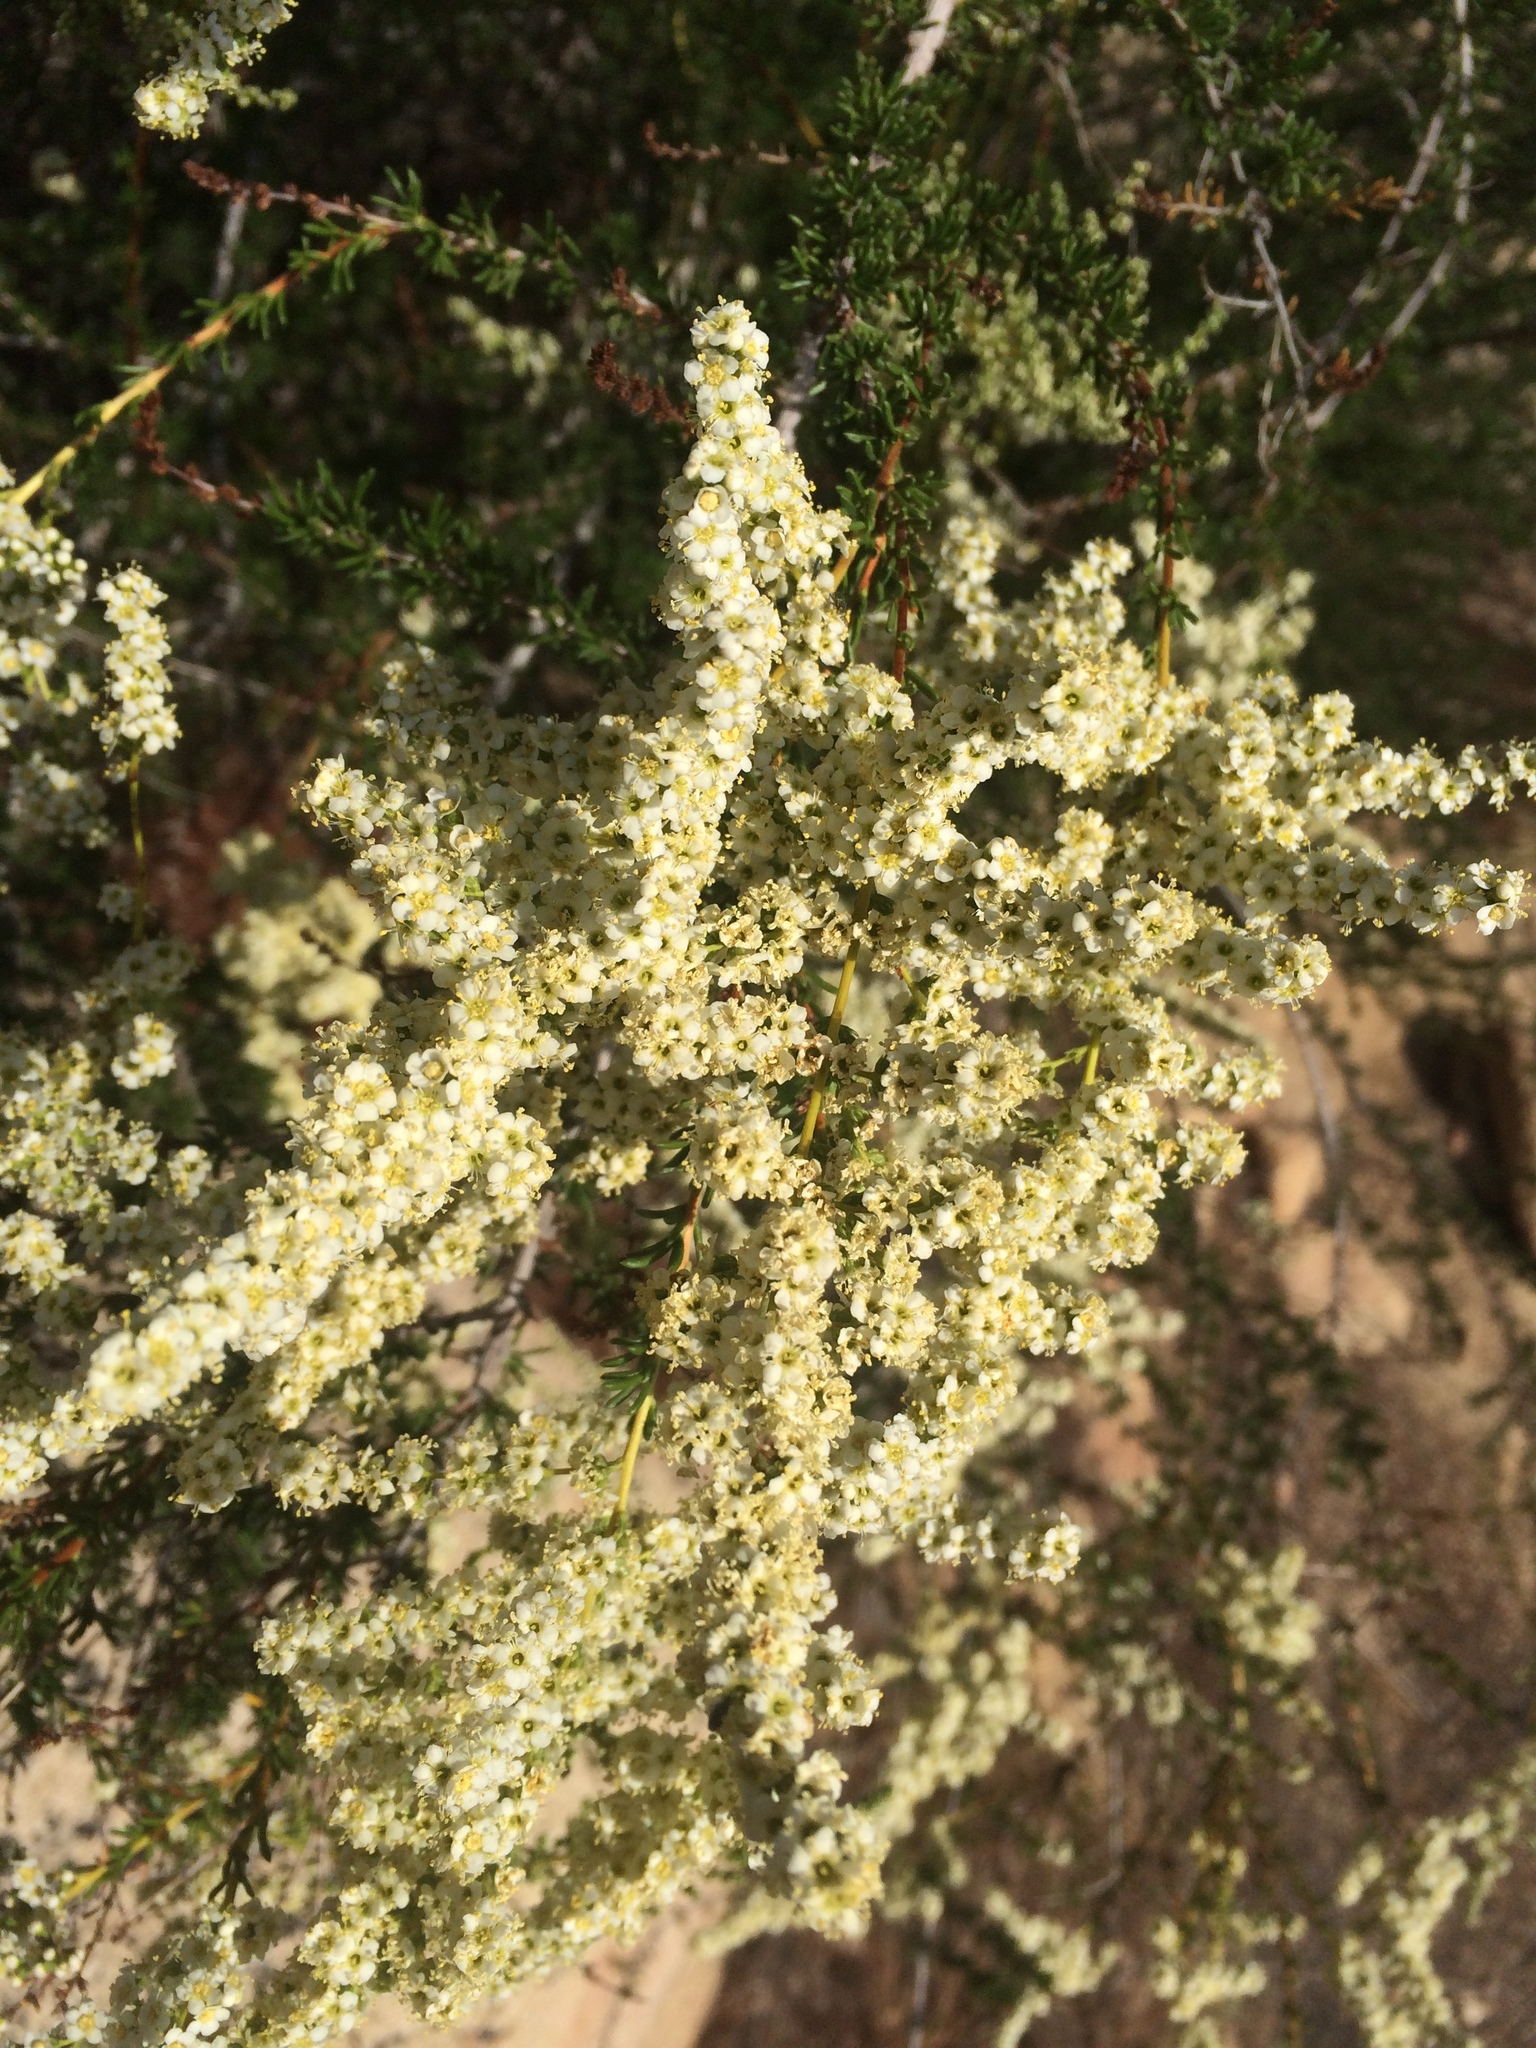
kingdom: Plantae
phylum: Tracheophyta
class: Magnoliopsida
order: Rosales
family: Rosaceae
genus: Adenostoma
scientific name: Adenostoma fasciculatum
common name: Chamise
